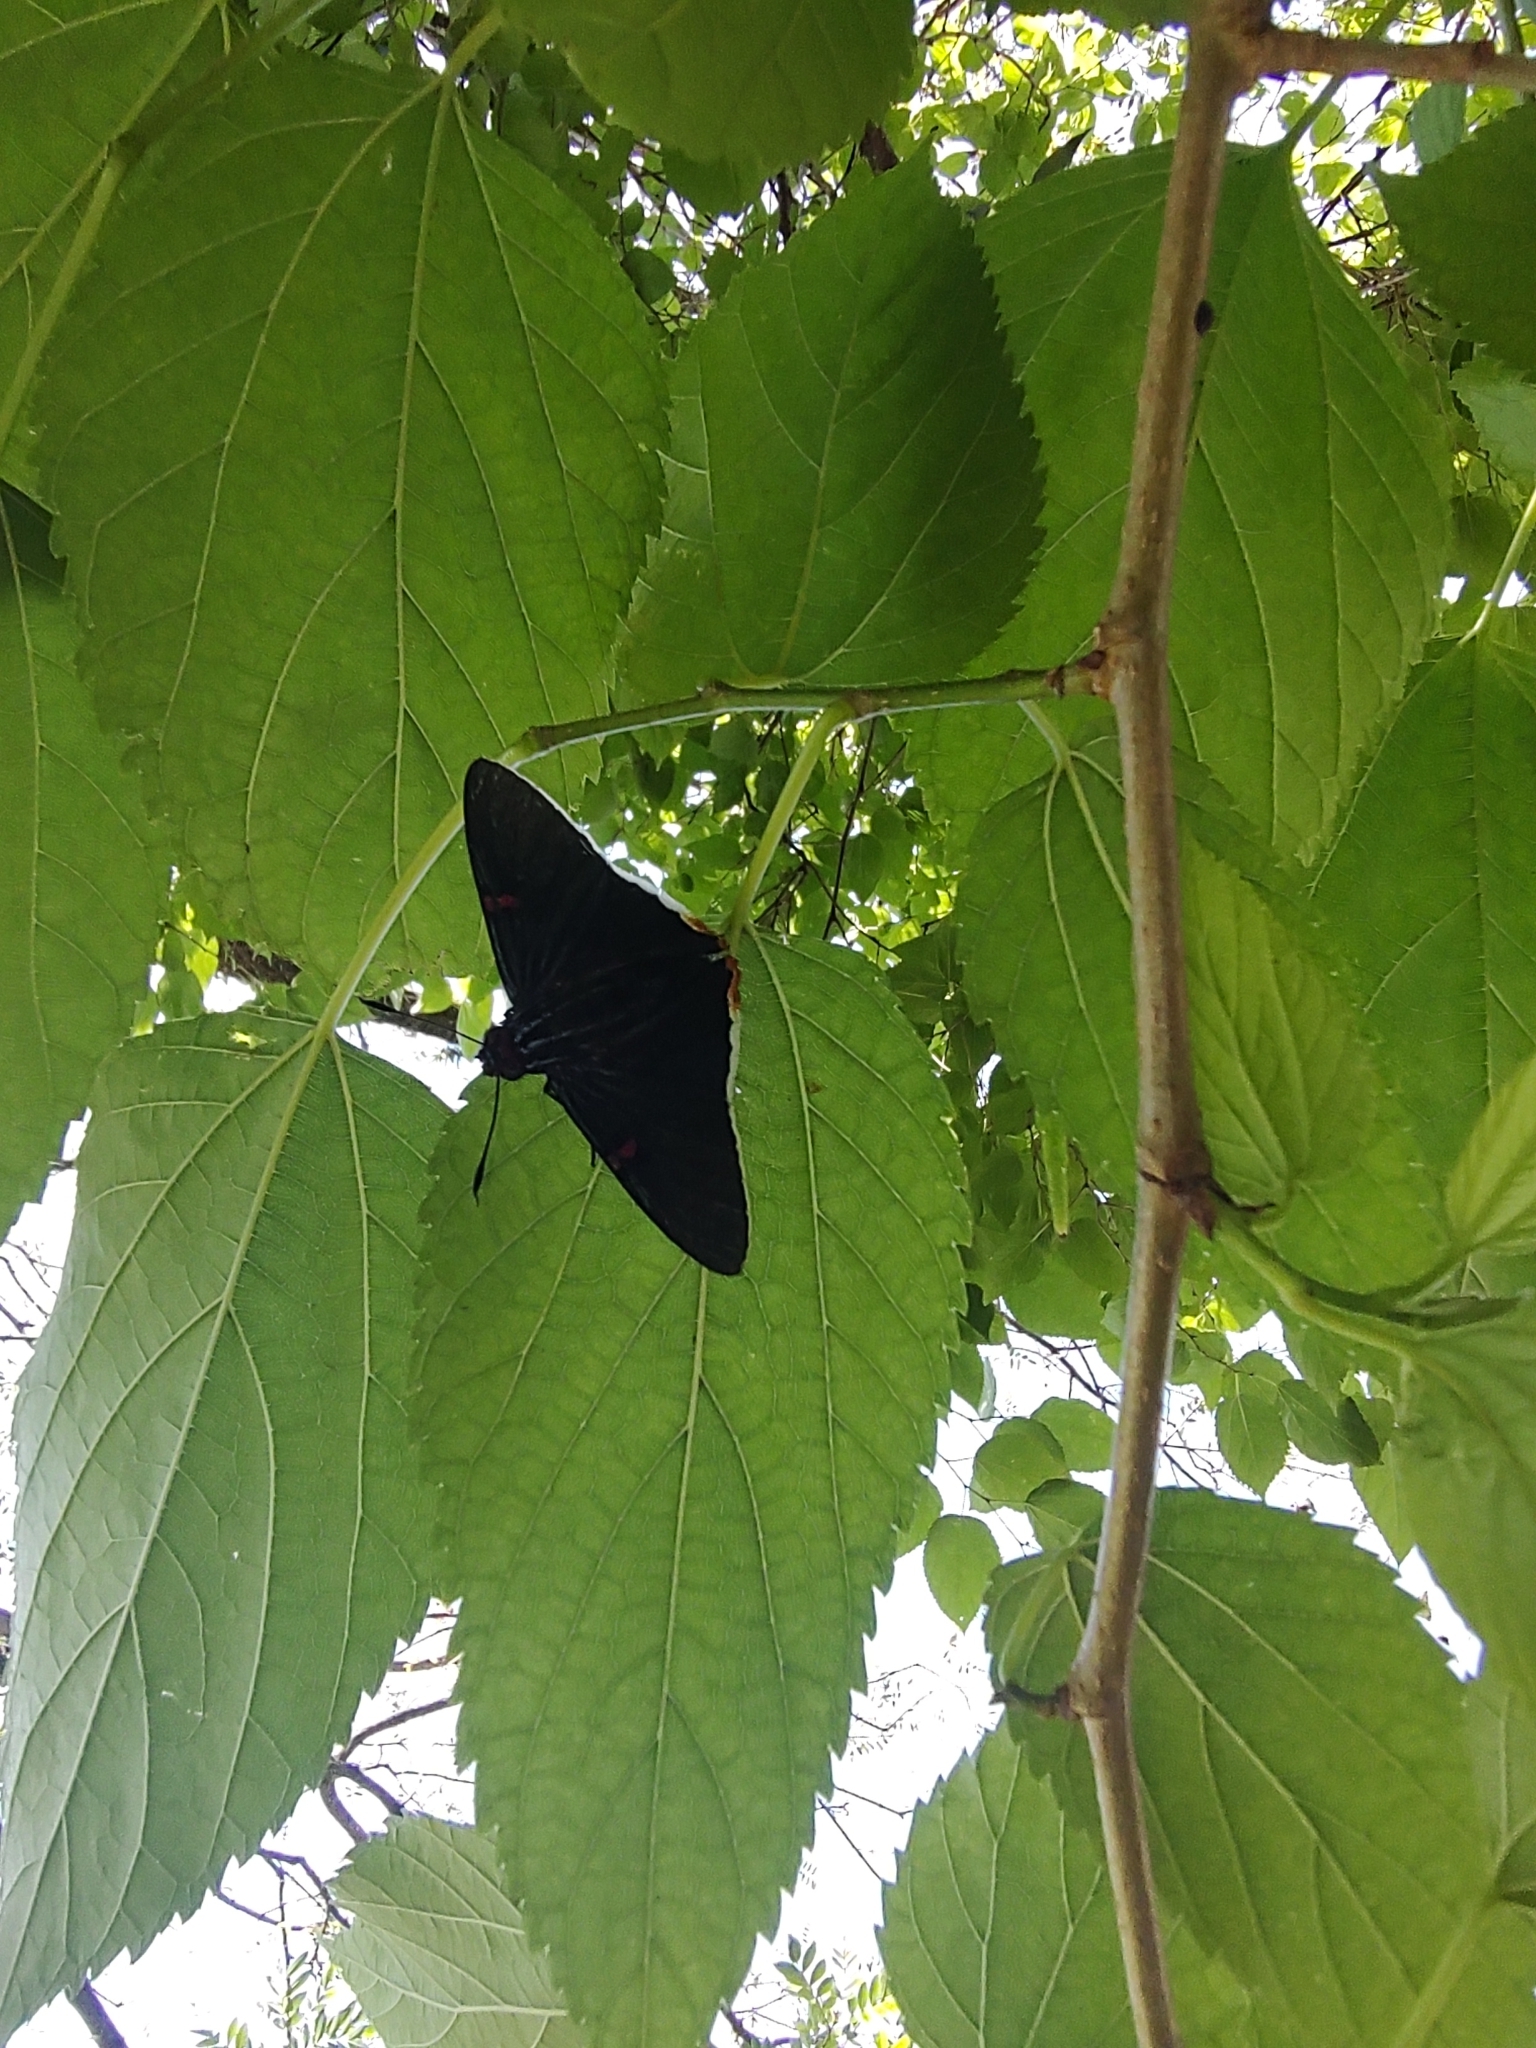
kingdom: Animalia
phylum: Arthropoda
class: Insecta
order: Lepidoptera
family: Hesperiidae
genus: Phocides
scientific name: Phocides polybius
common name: Guava skipper
